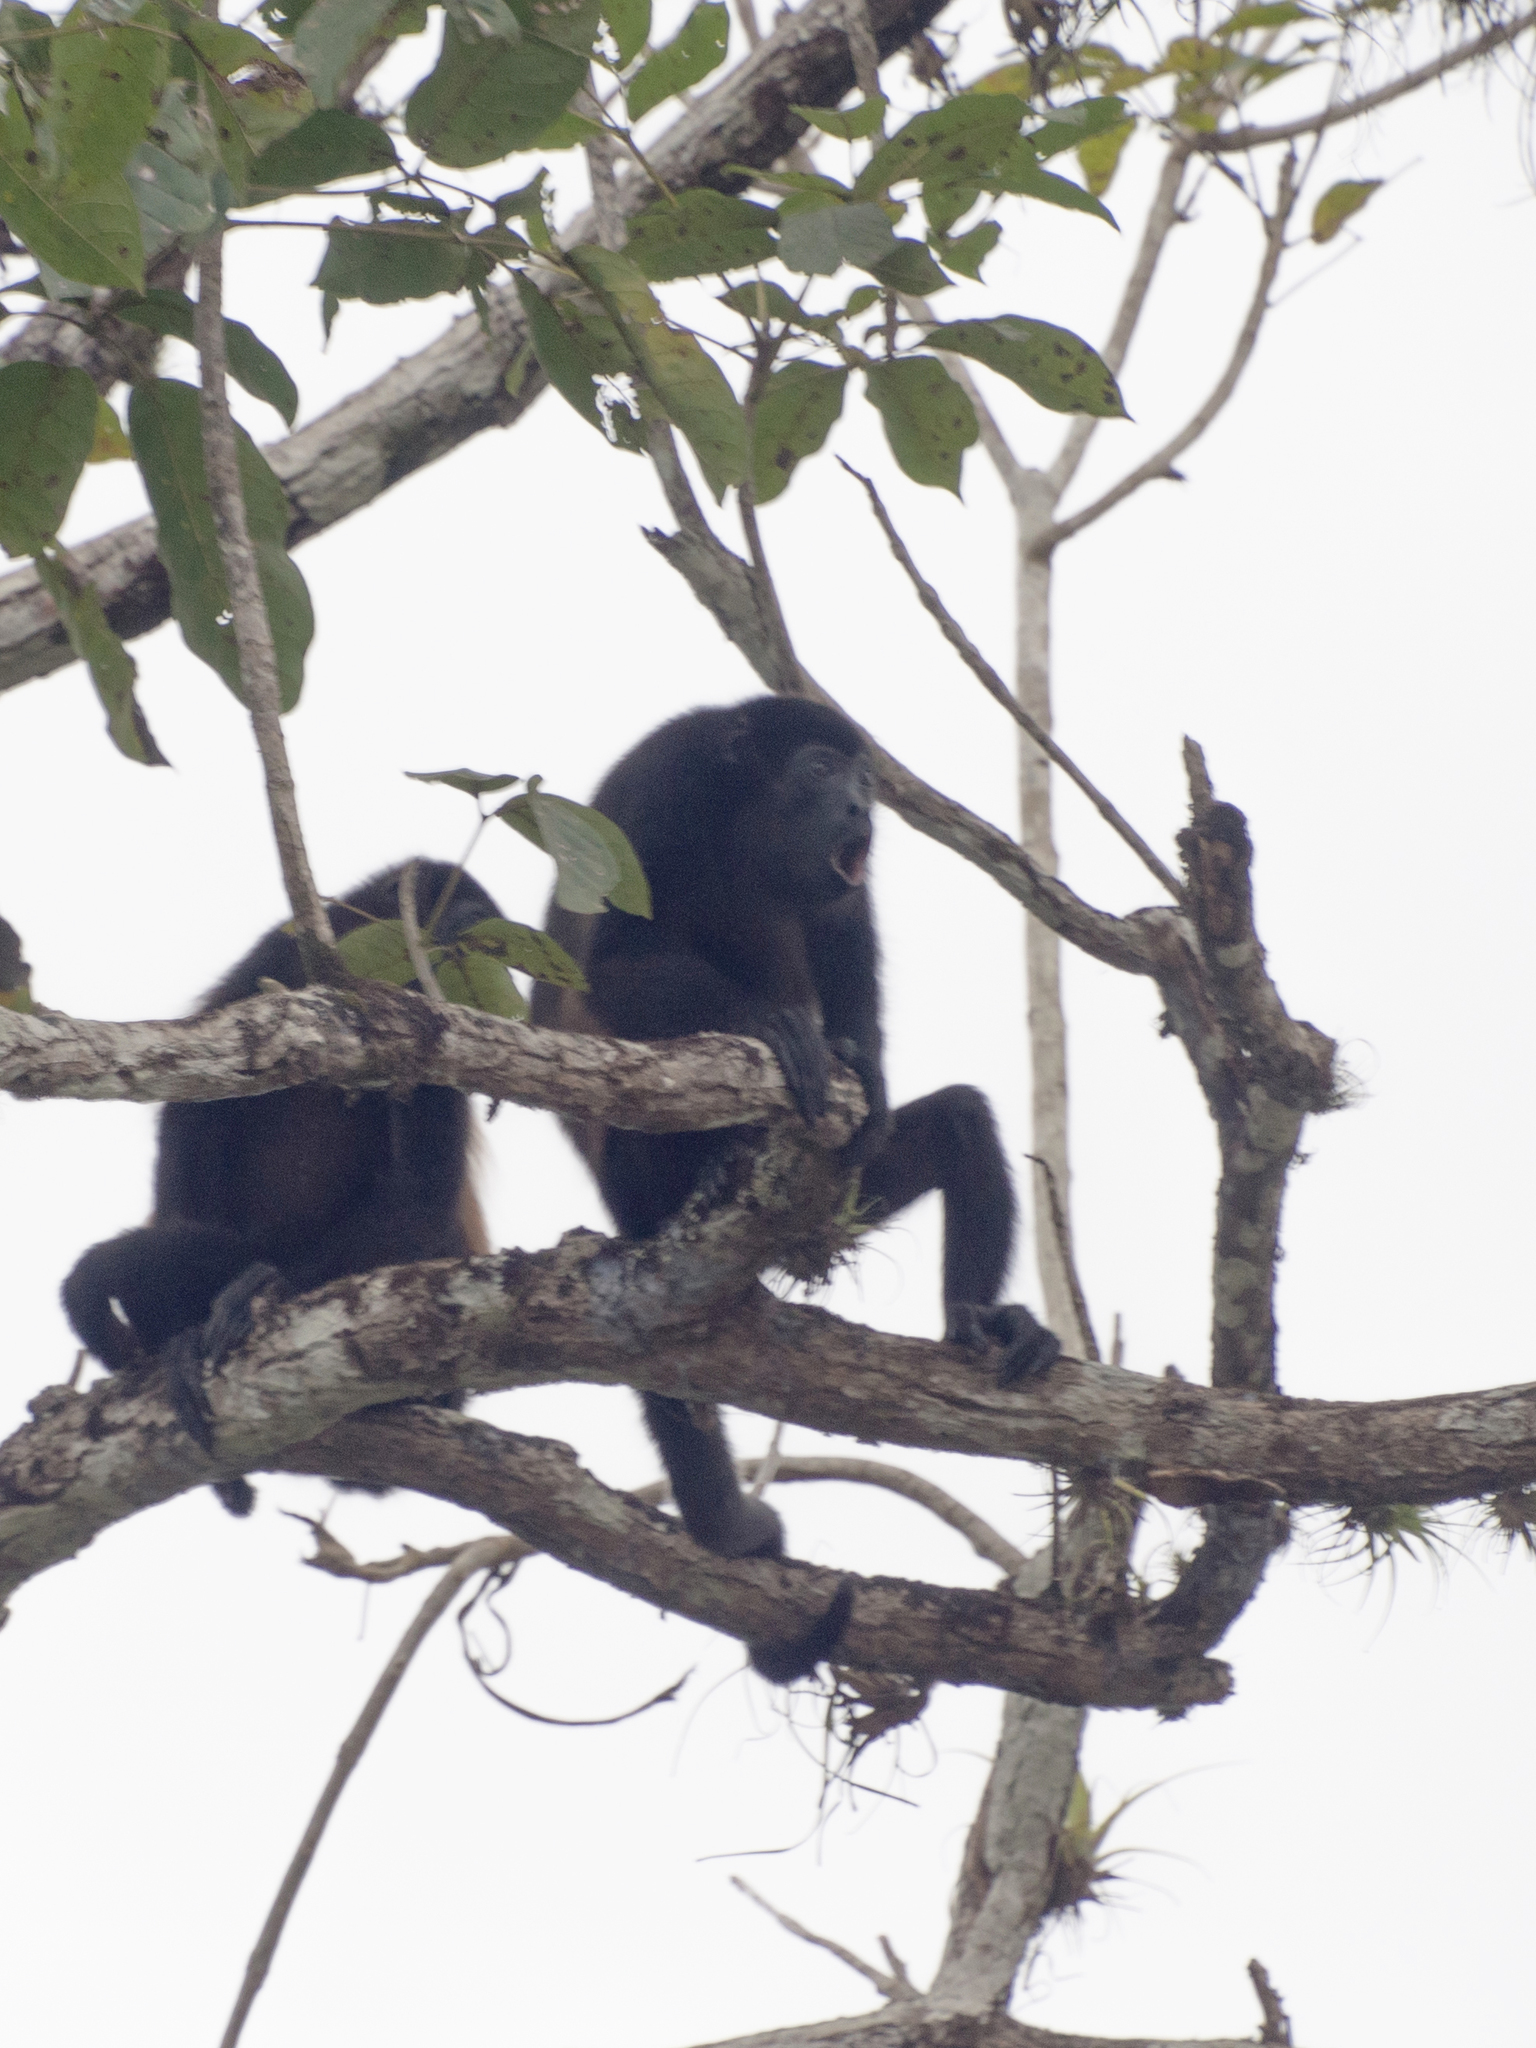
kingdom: Animalia
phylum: Chordata
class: Mammalia
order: Primates
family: Atelidae
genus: Alouatta
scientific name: Alouatta palliata
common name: Mantled howler
